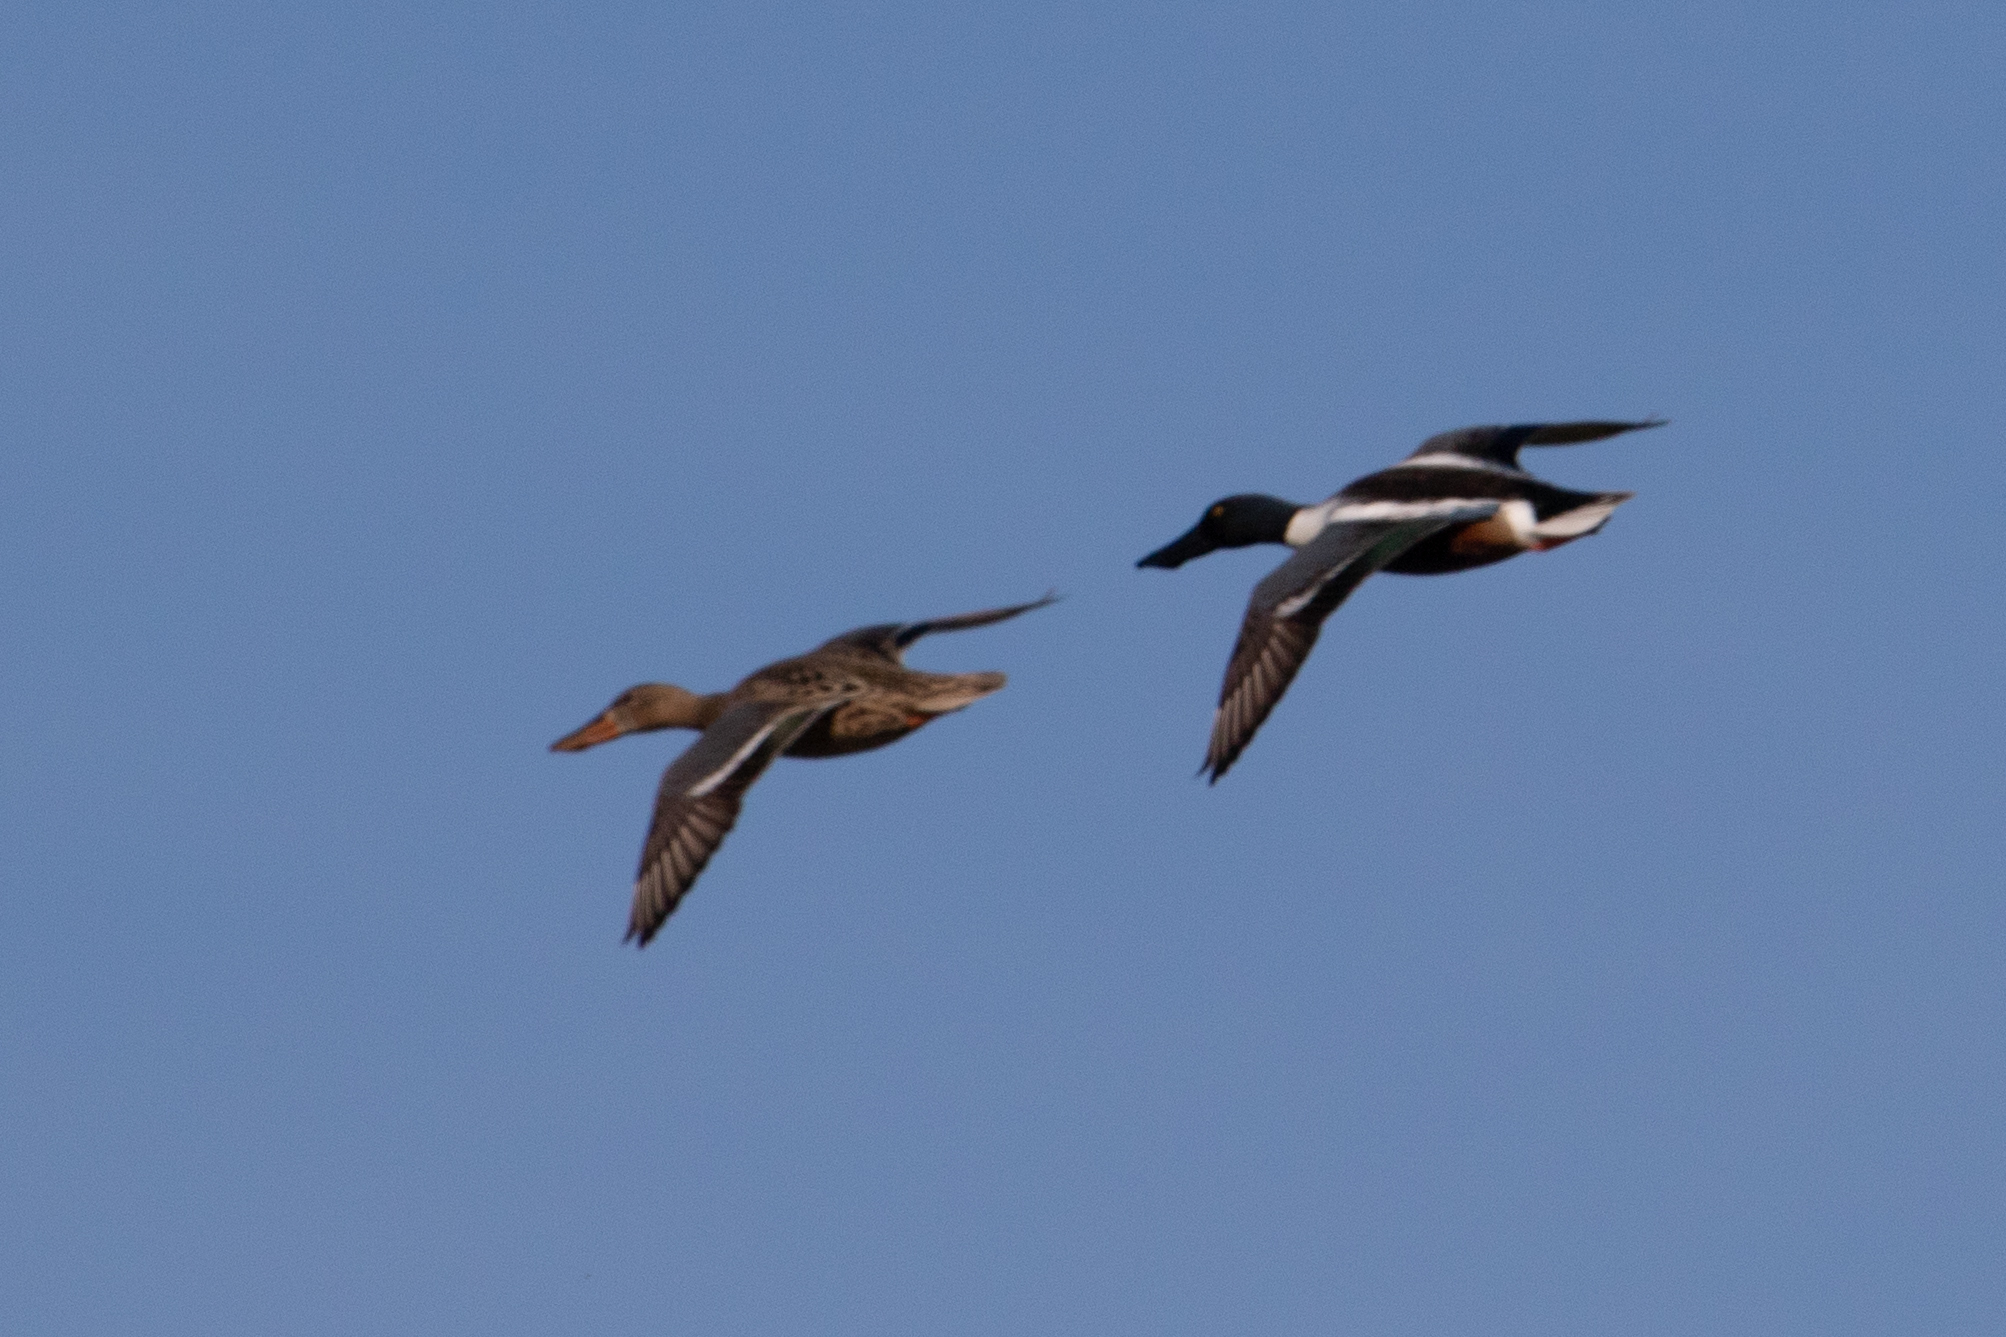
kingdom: Animalia
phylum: Chordata
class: Aves
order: Anseriformes
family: Anatidae
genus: Spatula
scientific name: Spatula clypeata
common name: Northern shoveler
